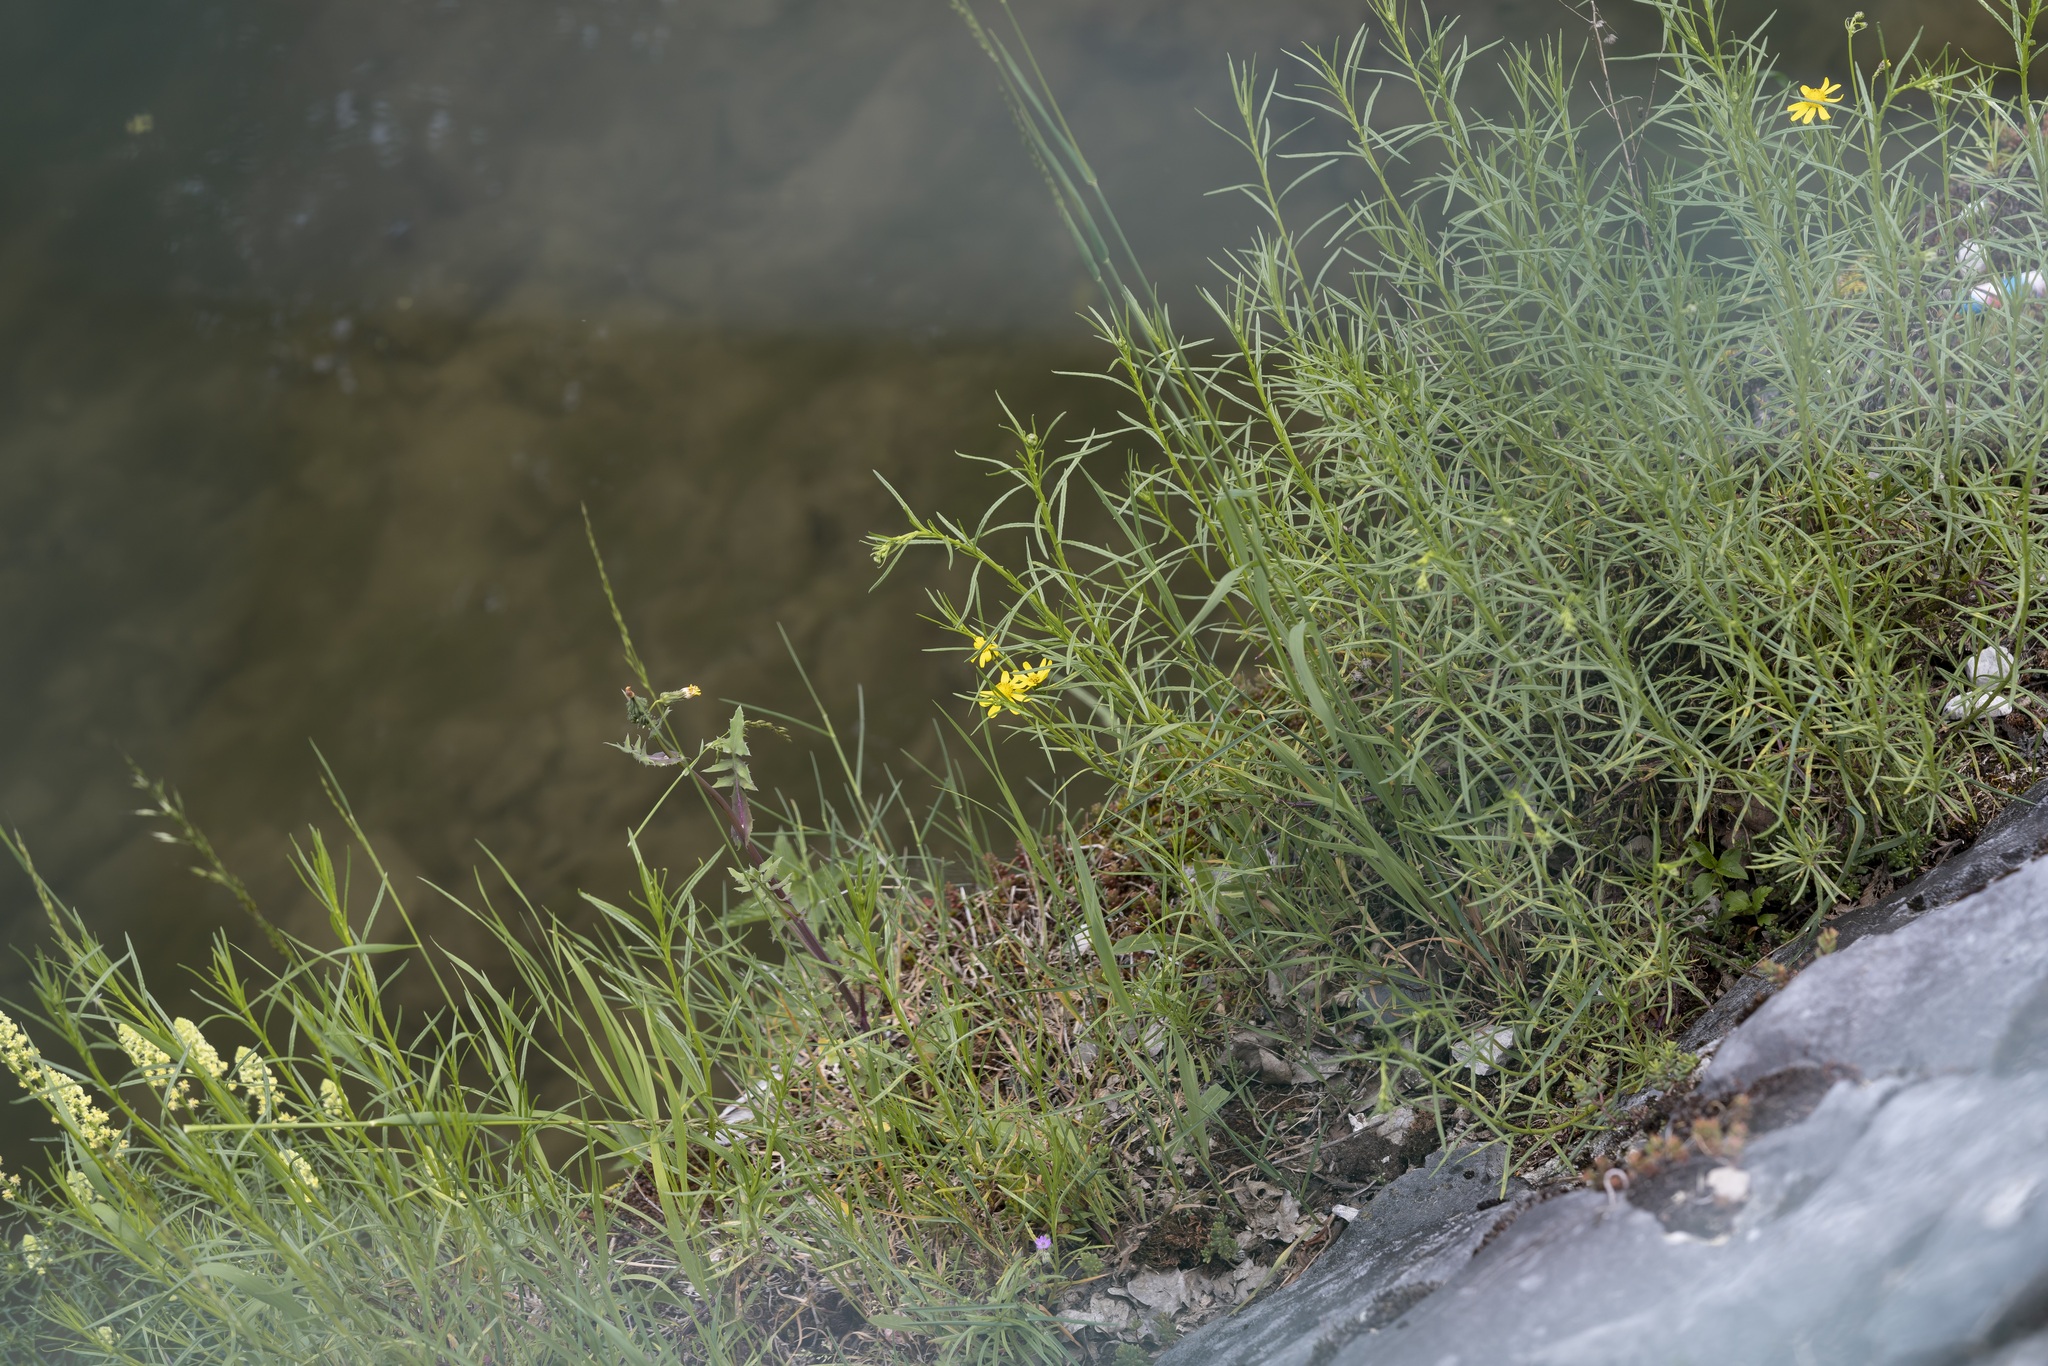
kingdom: Plantae
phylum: Tracheophyta
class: Magnoliopsida
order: Asterales
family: Asteraceae
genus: Senecio
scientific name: Senecio inaequidens
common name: Narrow-leaved ragwort
